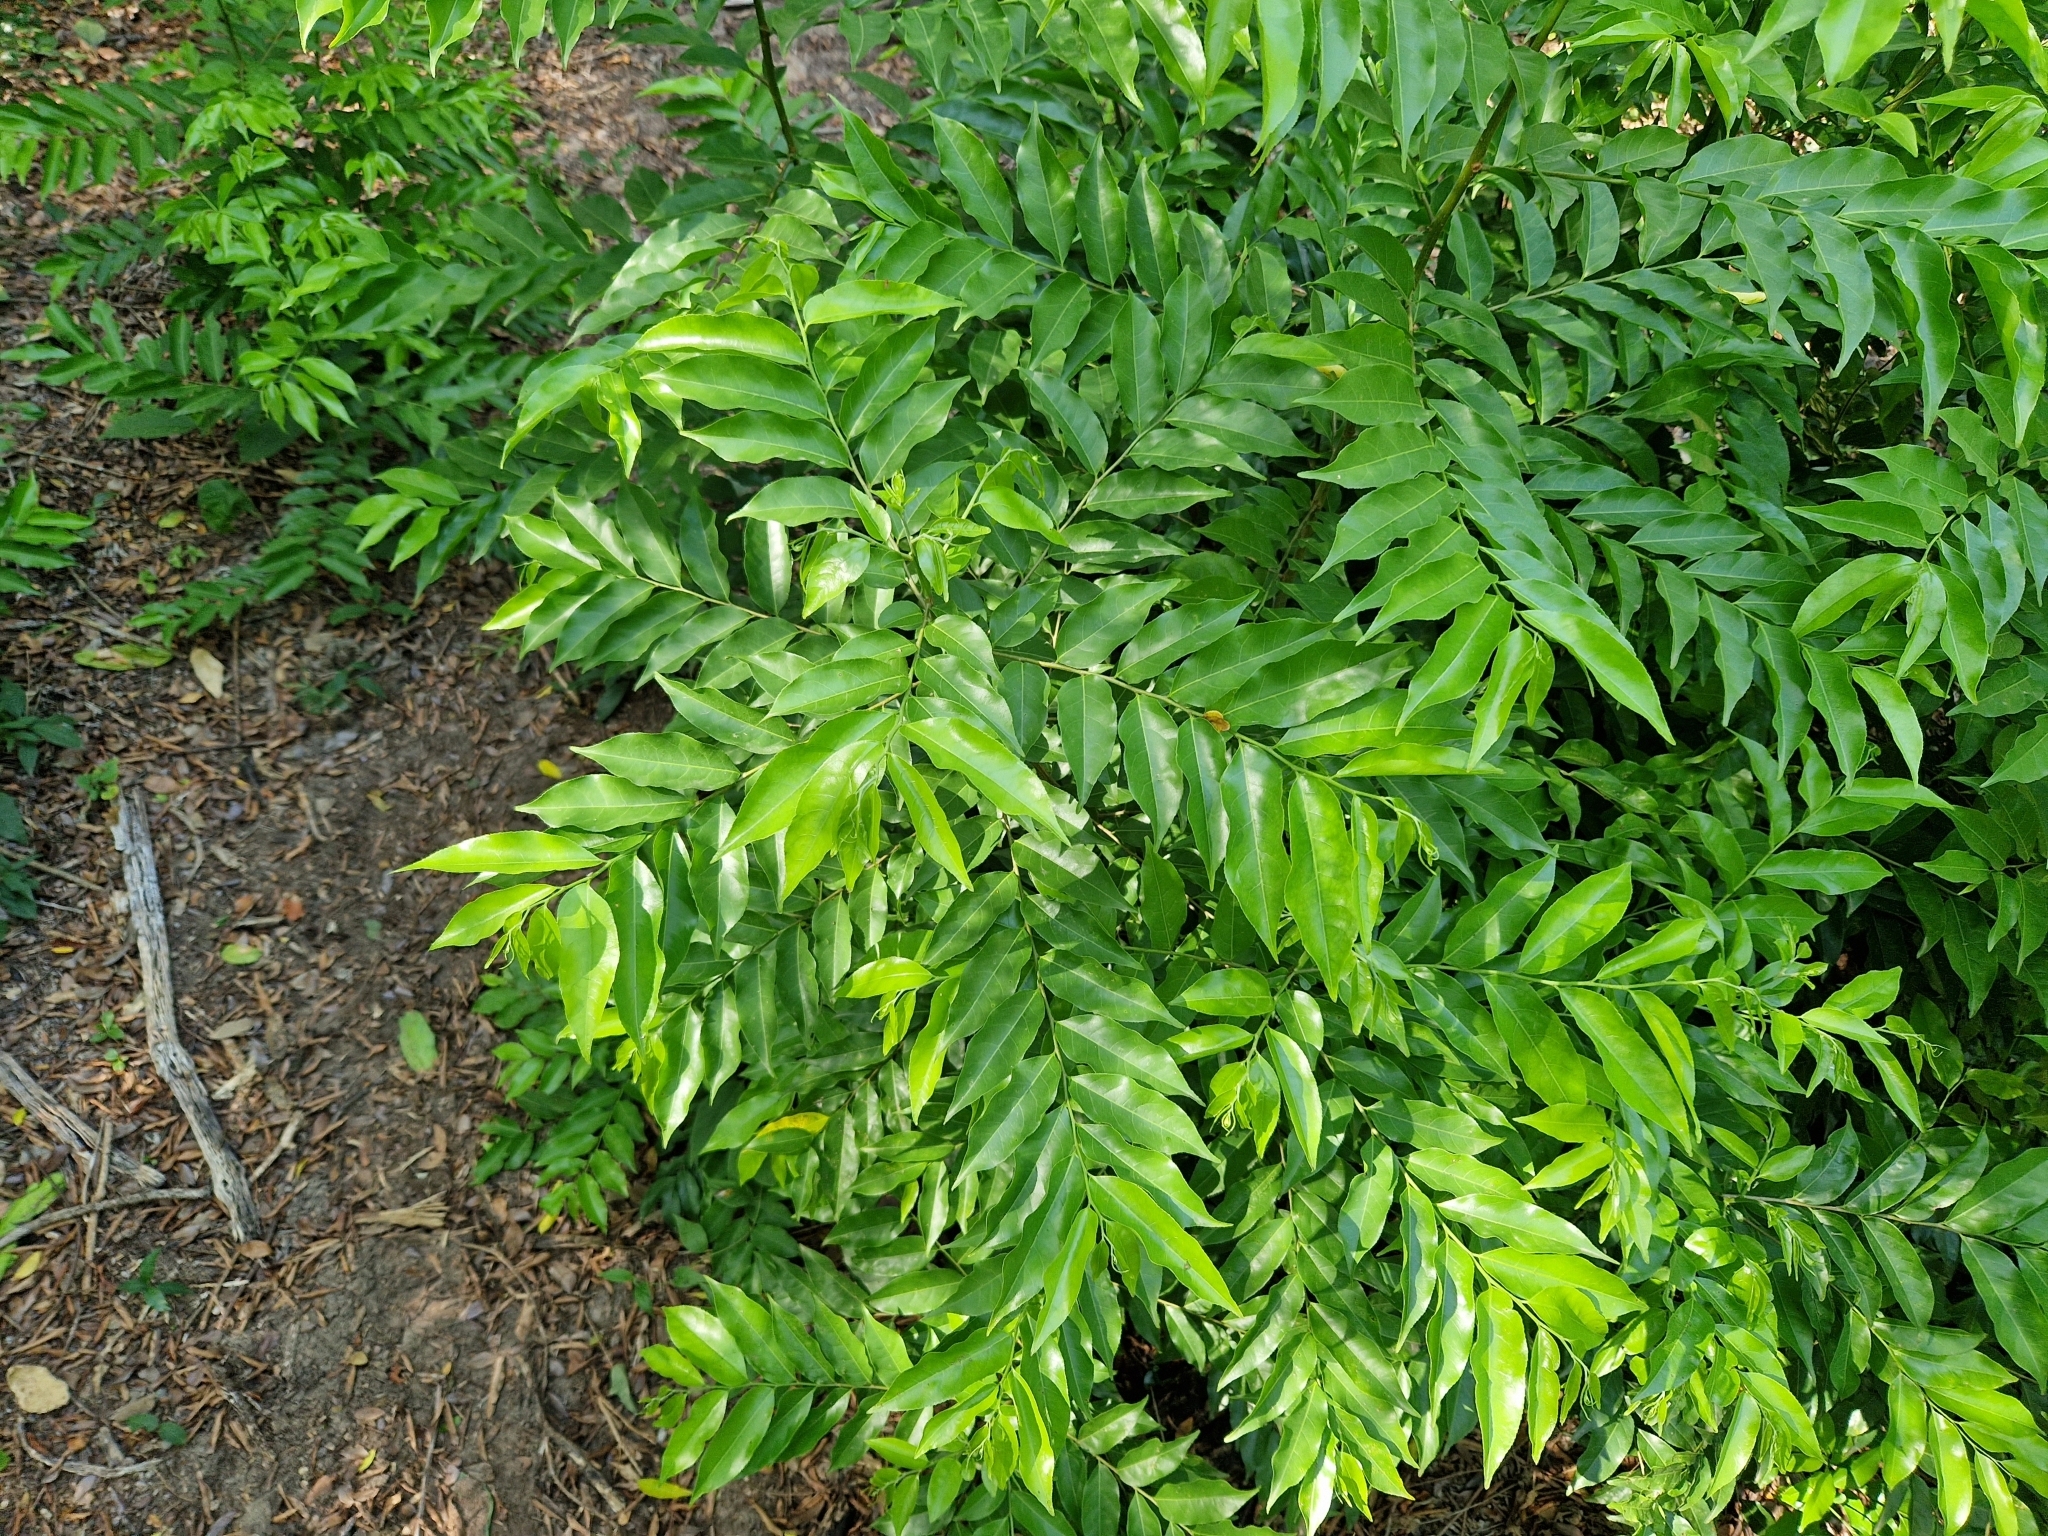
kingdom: Plantae
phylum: Tracheophyta
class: Magnoliopsida
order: Malpighiales
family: Salicaceae
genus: Casearia
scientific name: Casearia sylvestris
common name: Wild sage
